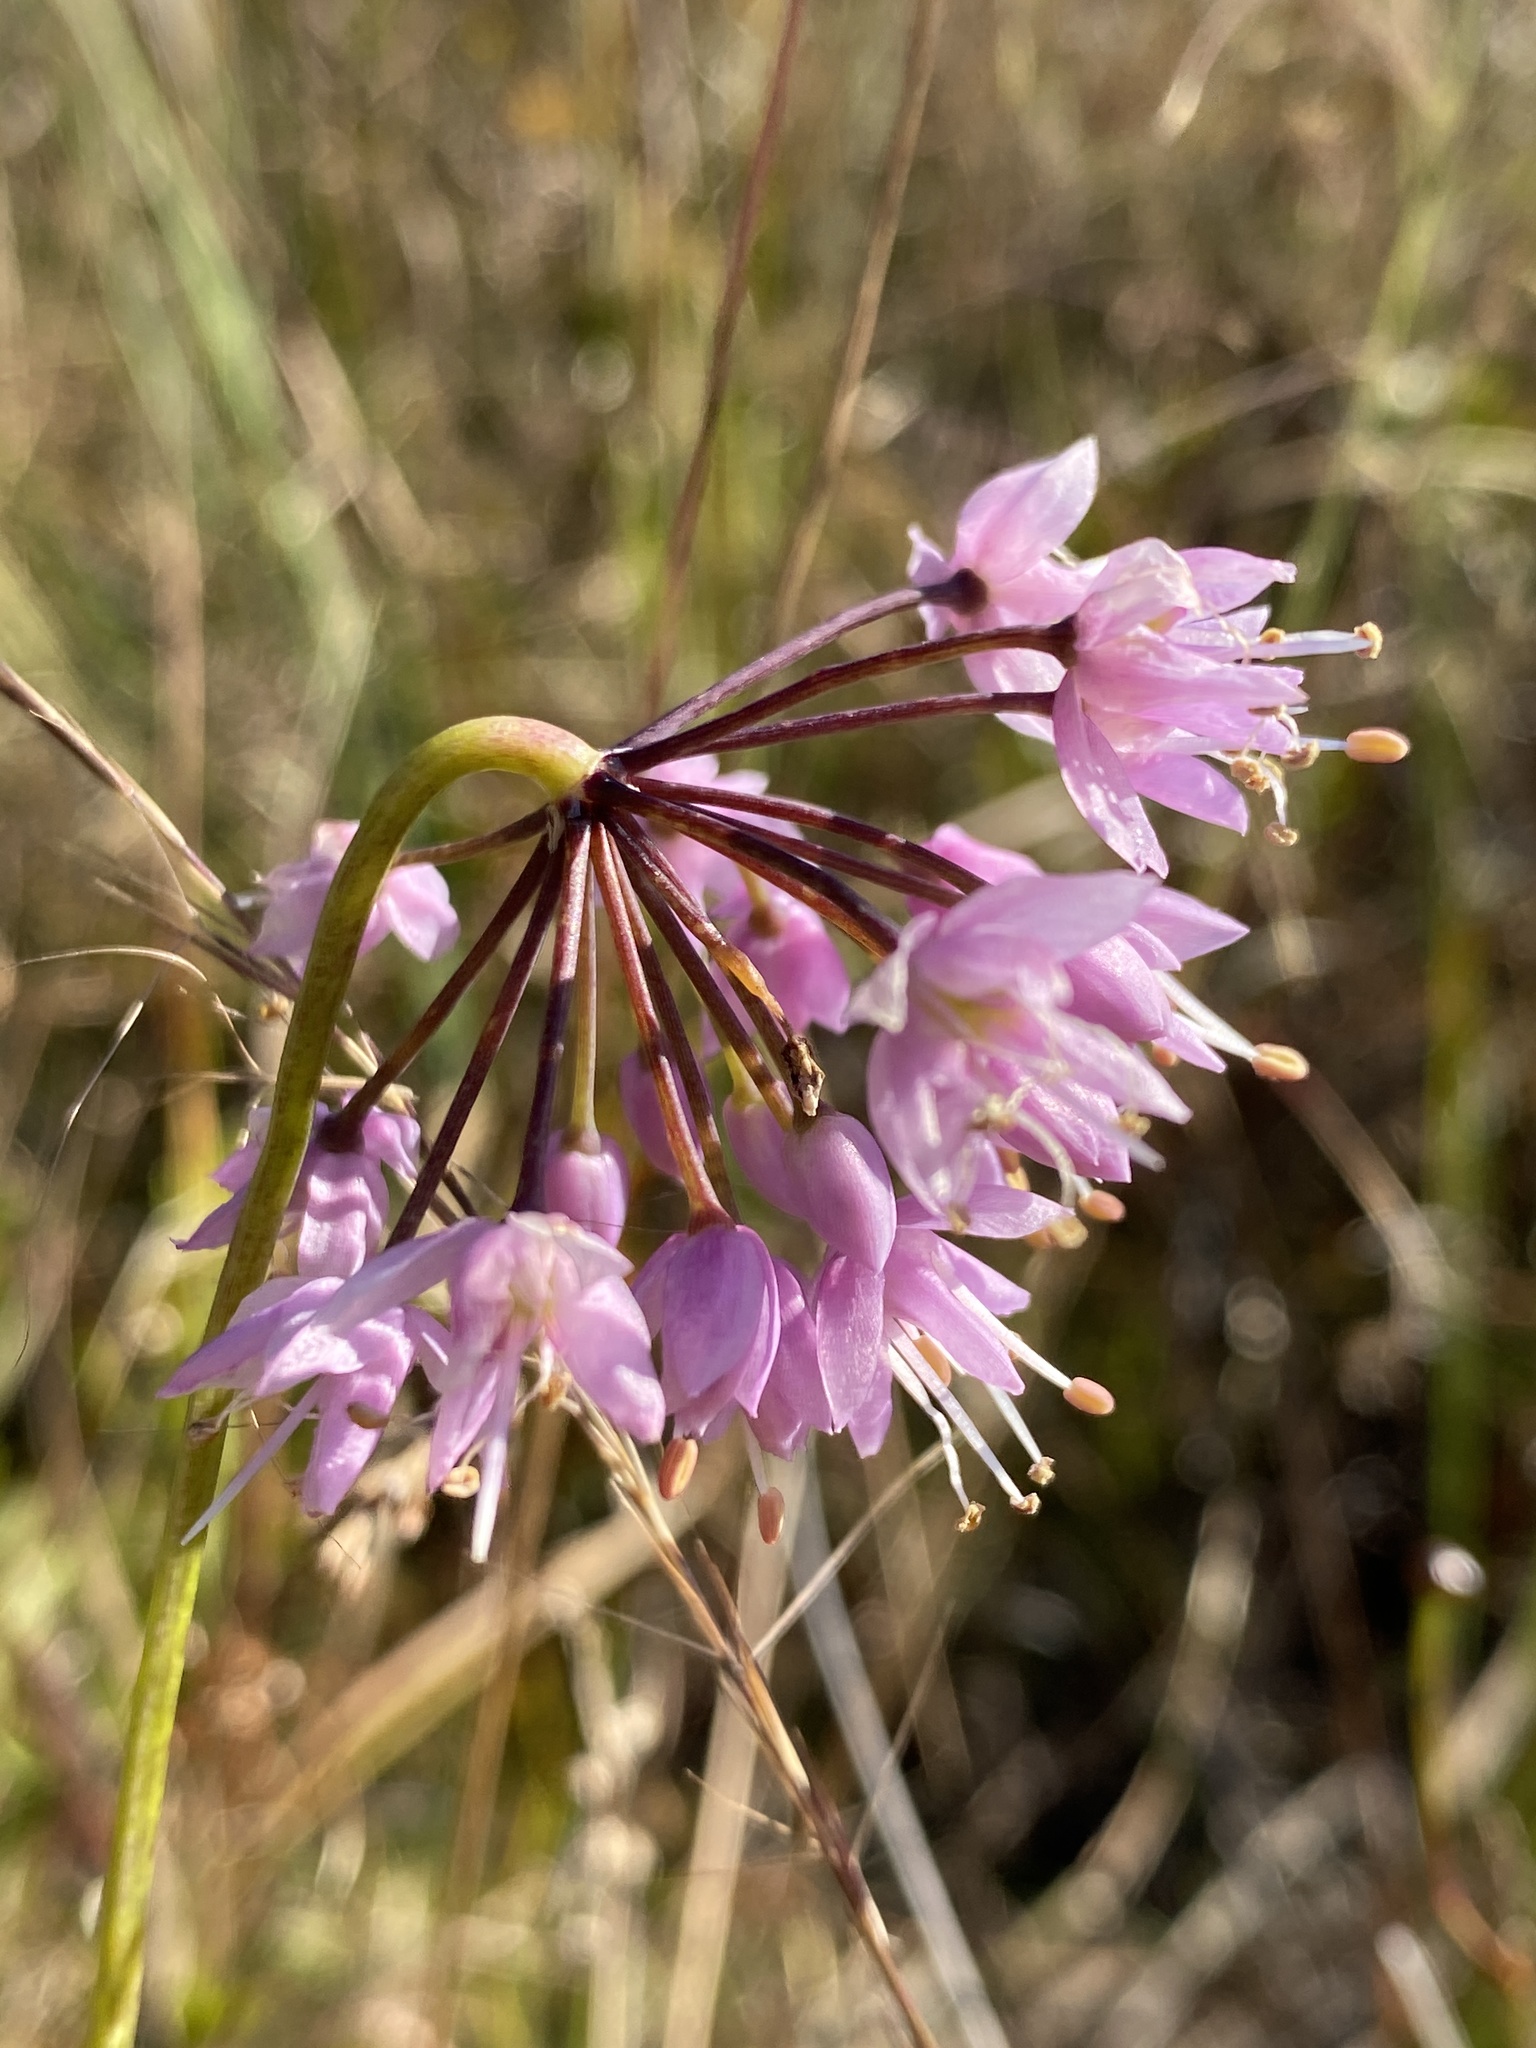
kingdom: Plantae
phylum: Tracheophyta
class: Liliopsida
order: Asparagales
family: Amaryllidaceae
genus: Allium
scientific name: Allium cernuum
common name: Nodding onion
